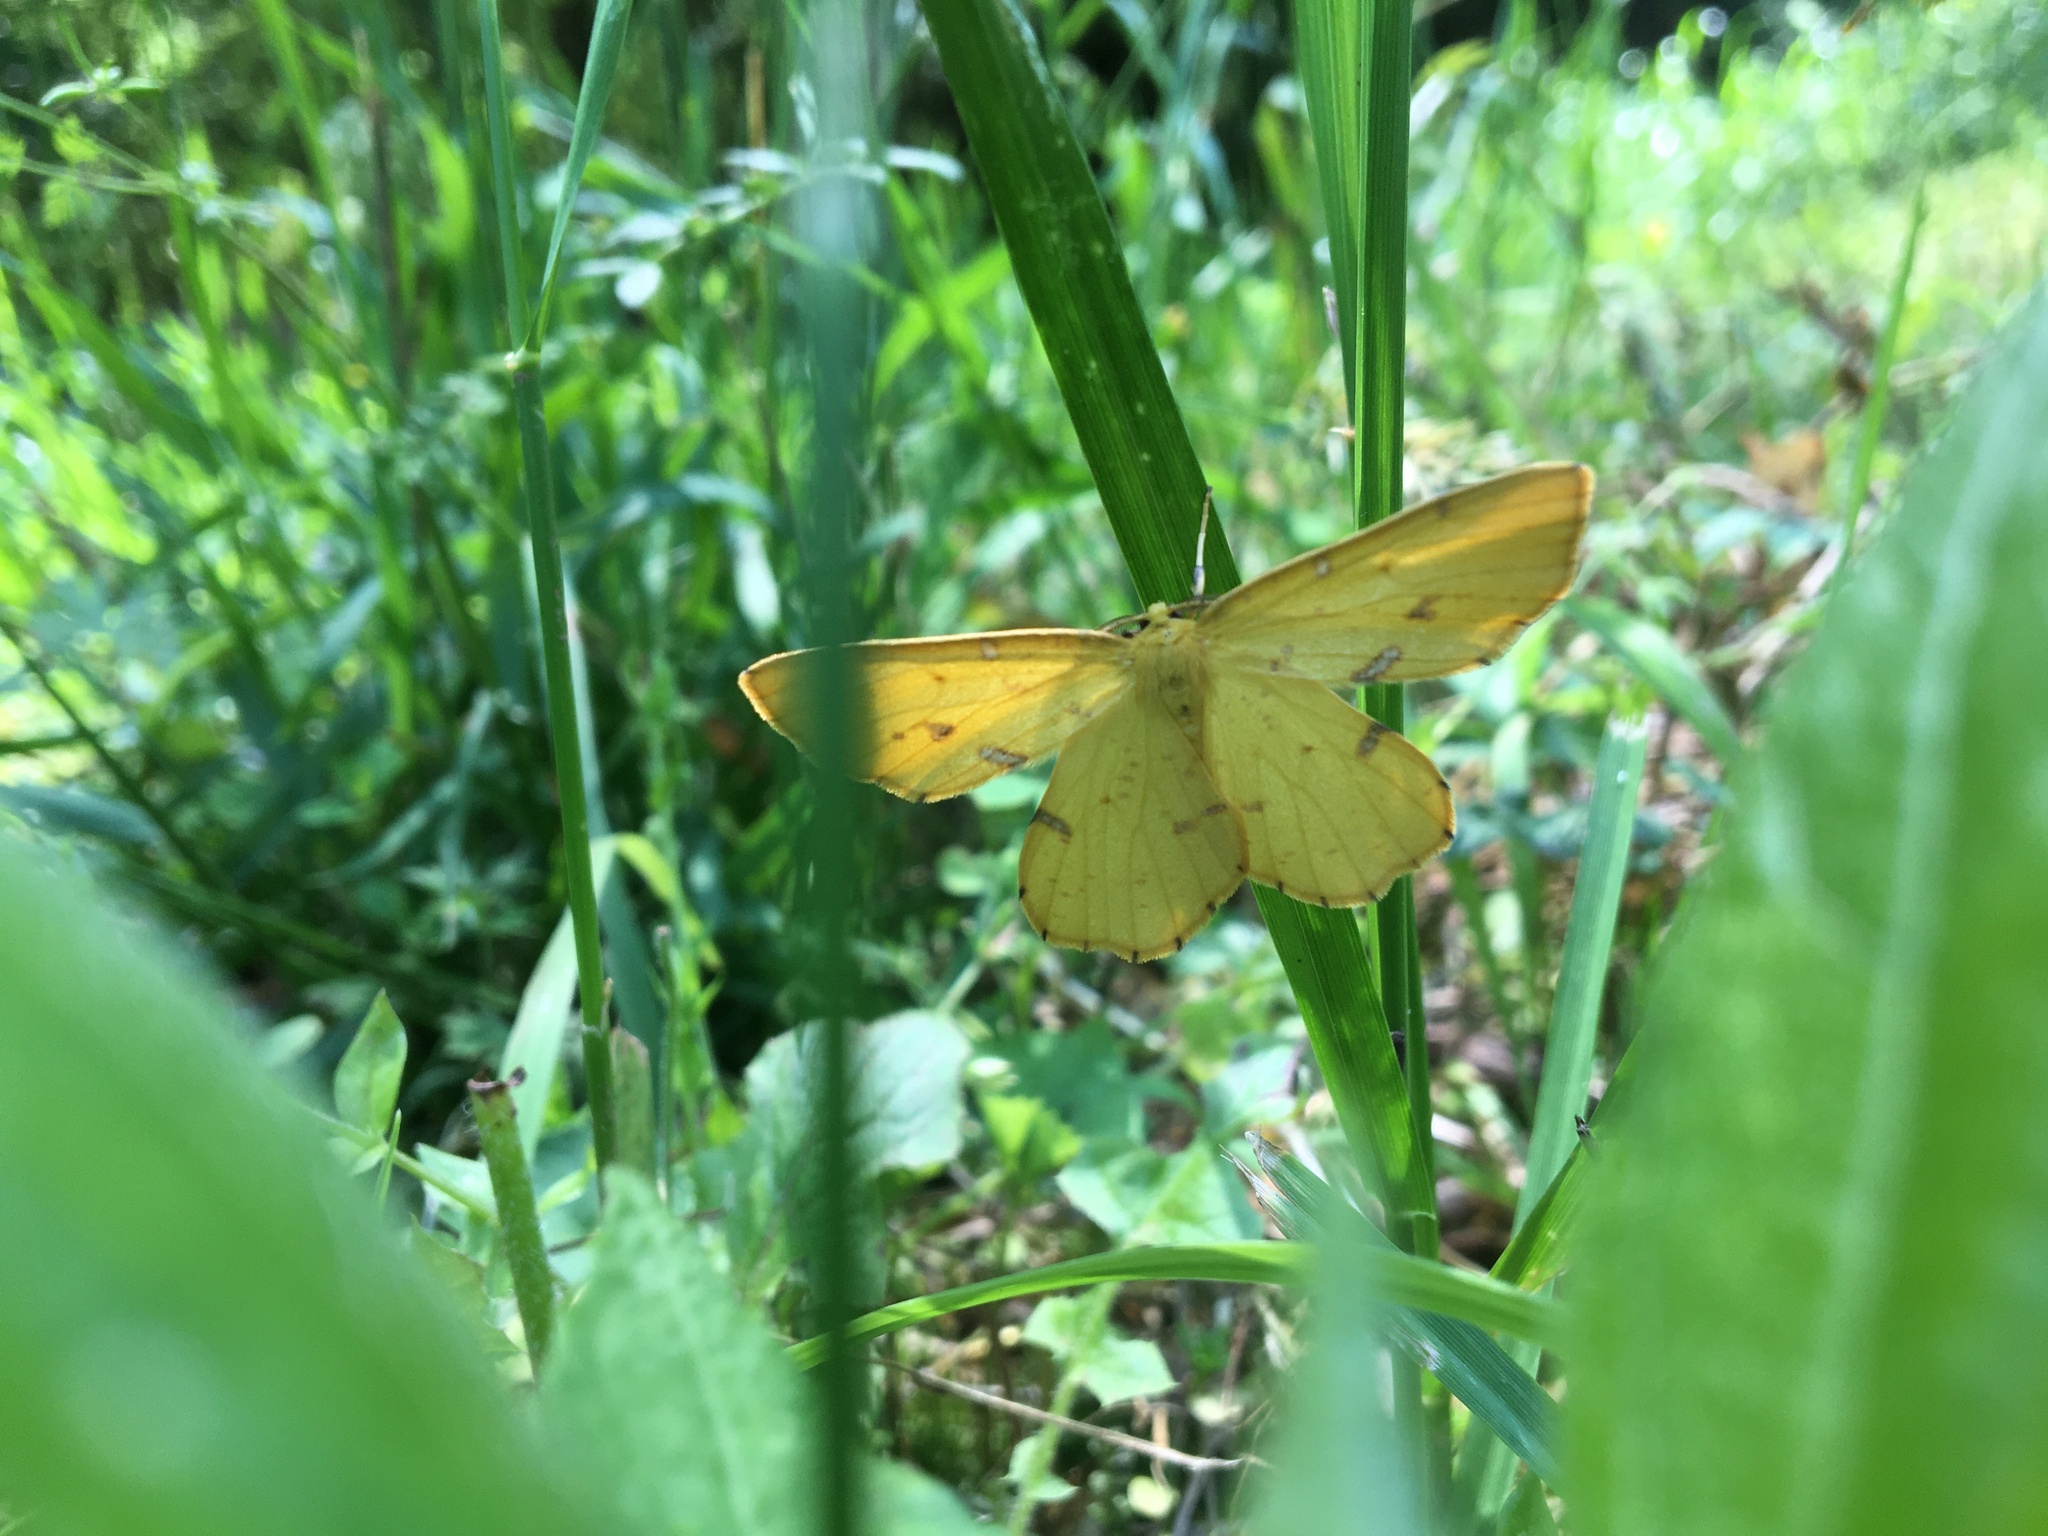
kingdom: Animalia
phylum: Arthropoda
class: Insecta
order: Lepidoptera
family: Geometridae
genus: Xanthotype
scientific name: Xanthotype
